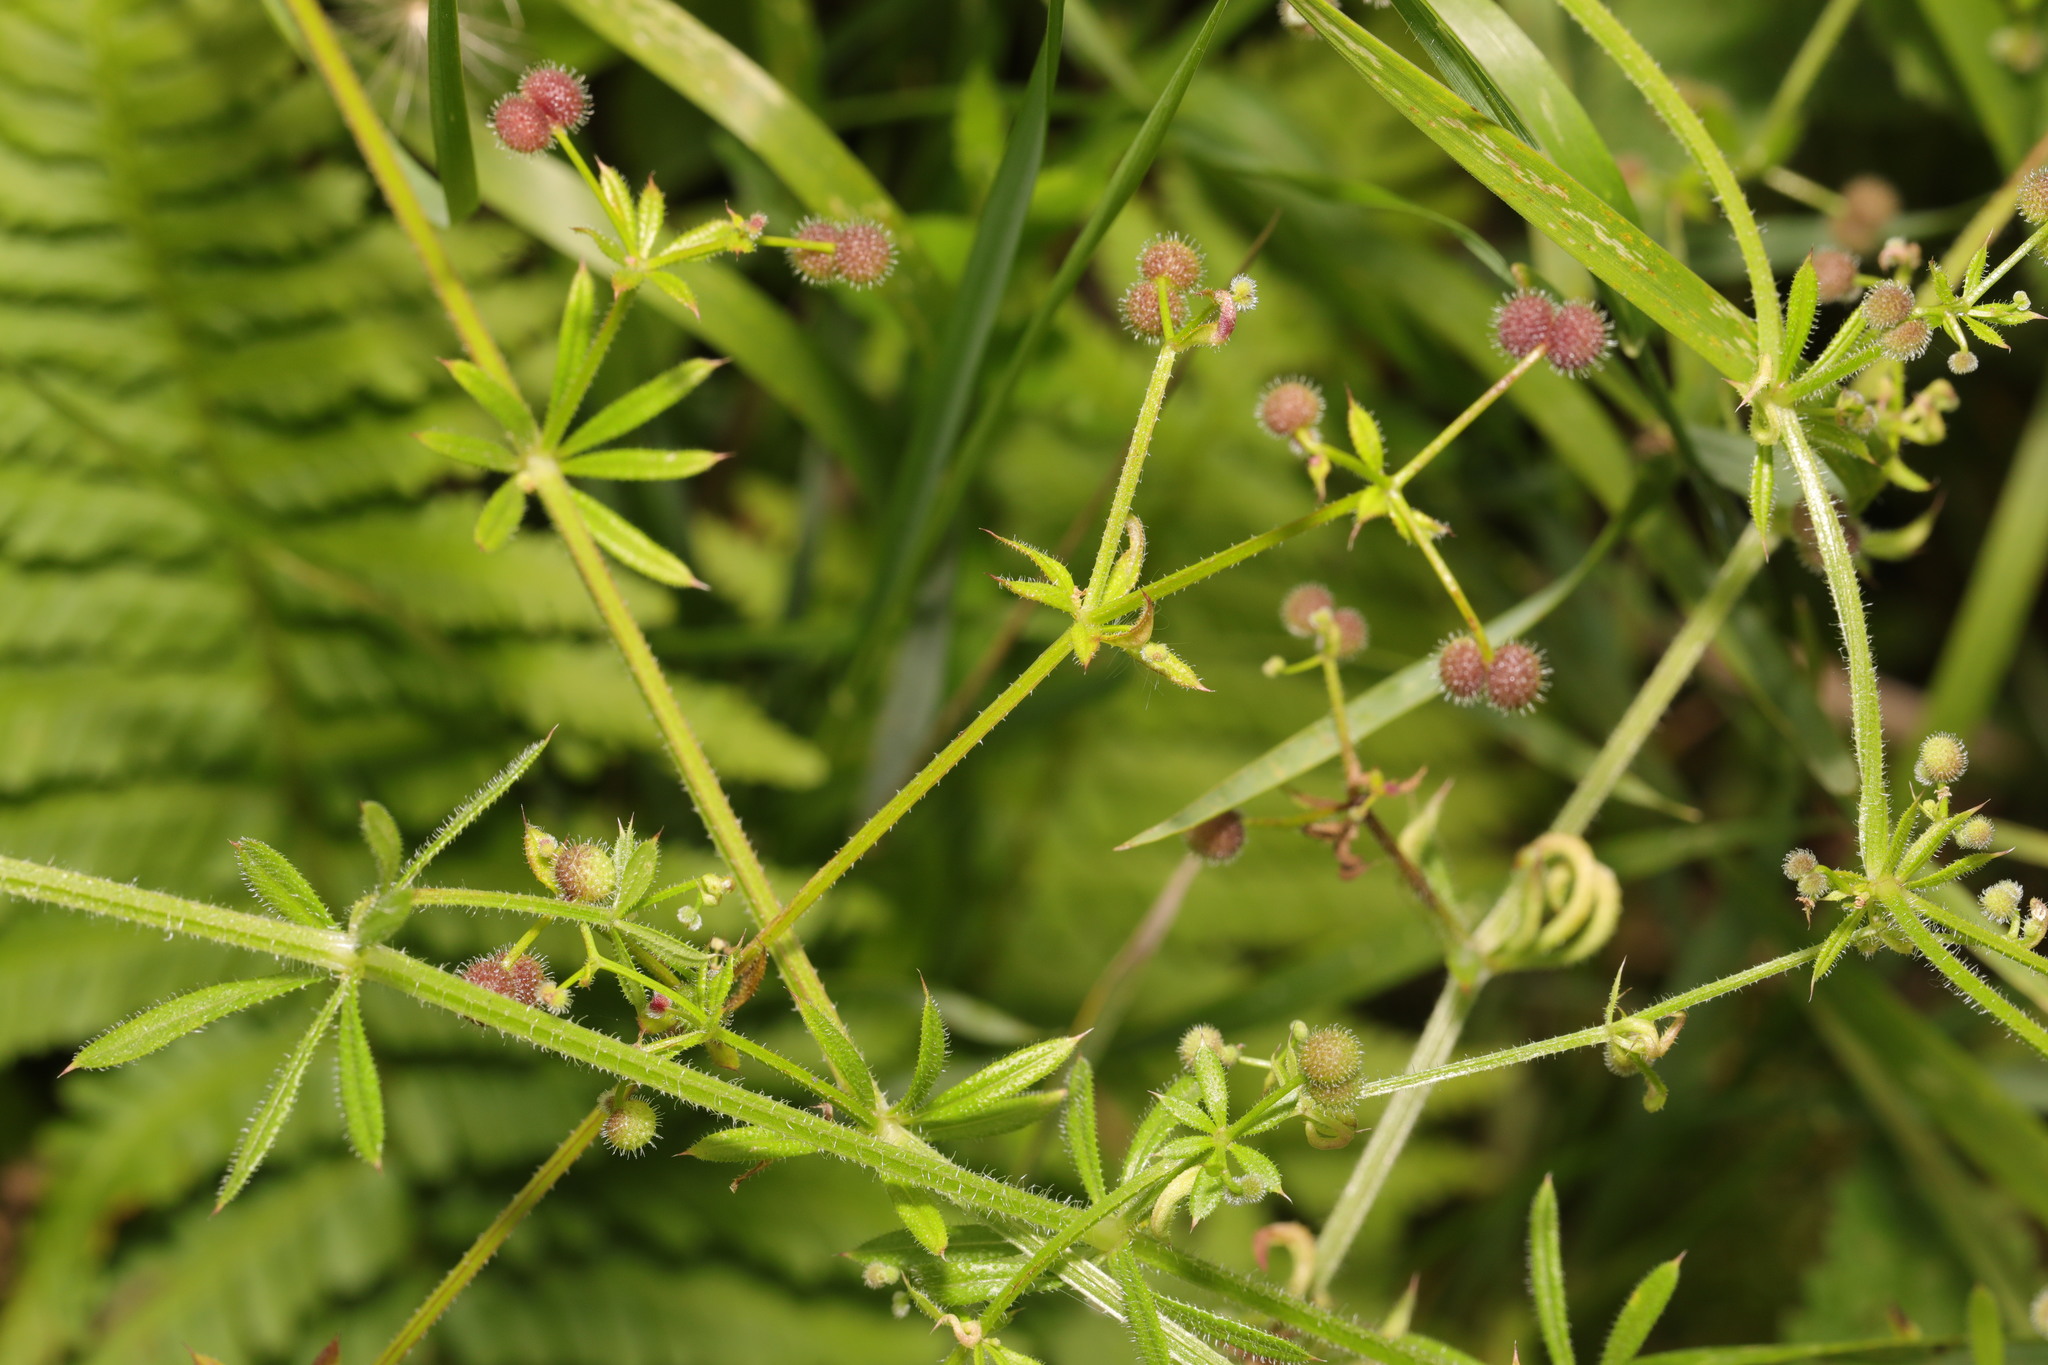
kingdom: Plantae
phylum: Tracheophyta
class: Magnoliopsida
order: Gentianales
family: Rubiaceae
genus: Galium
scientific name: Galium aparine
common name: Cleavers
